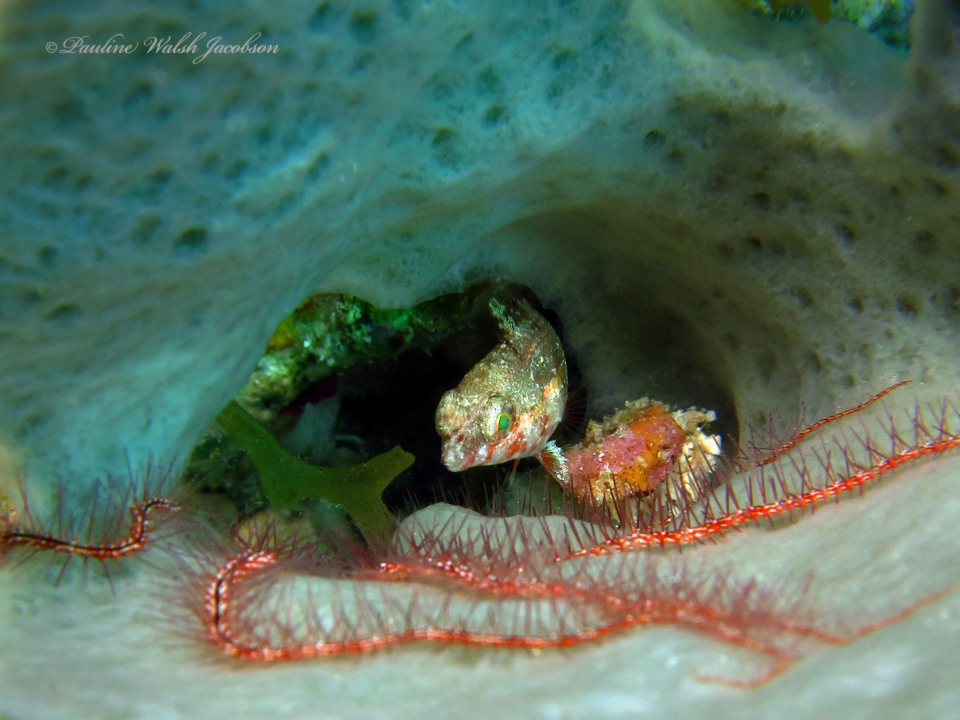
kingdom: Animalia
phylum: Echinodermata
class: Ophiuroidea
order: Amphilepidida
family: Ophiotrichidae
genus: Ophiothrix
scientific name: Ophiothrix suensonii
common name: Sponge brittle star
